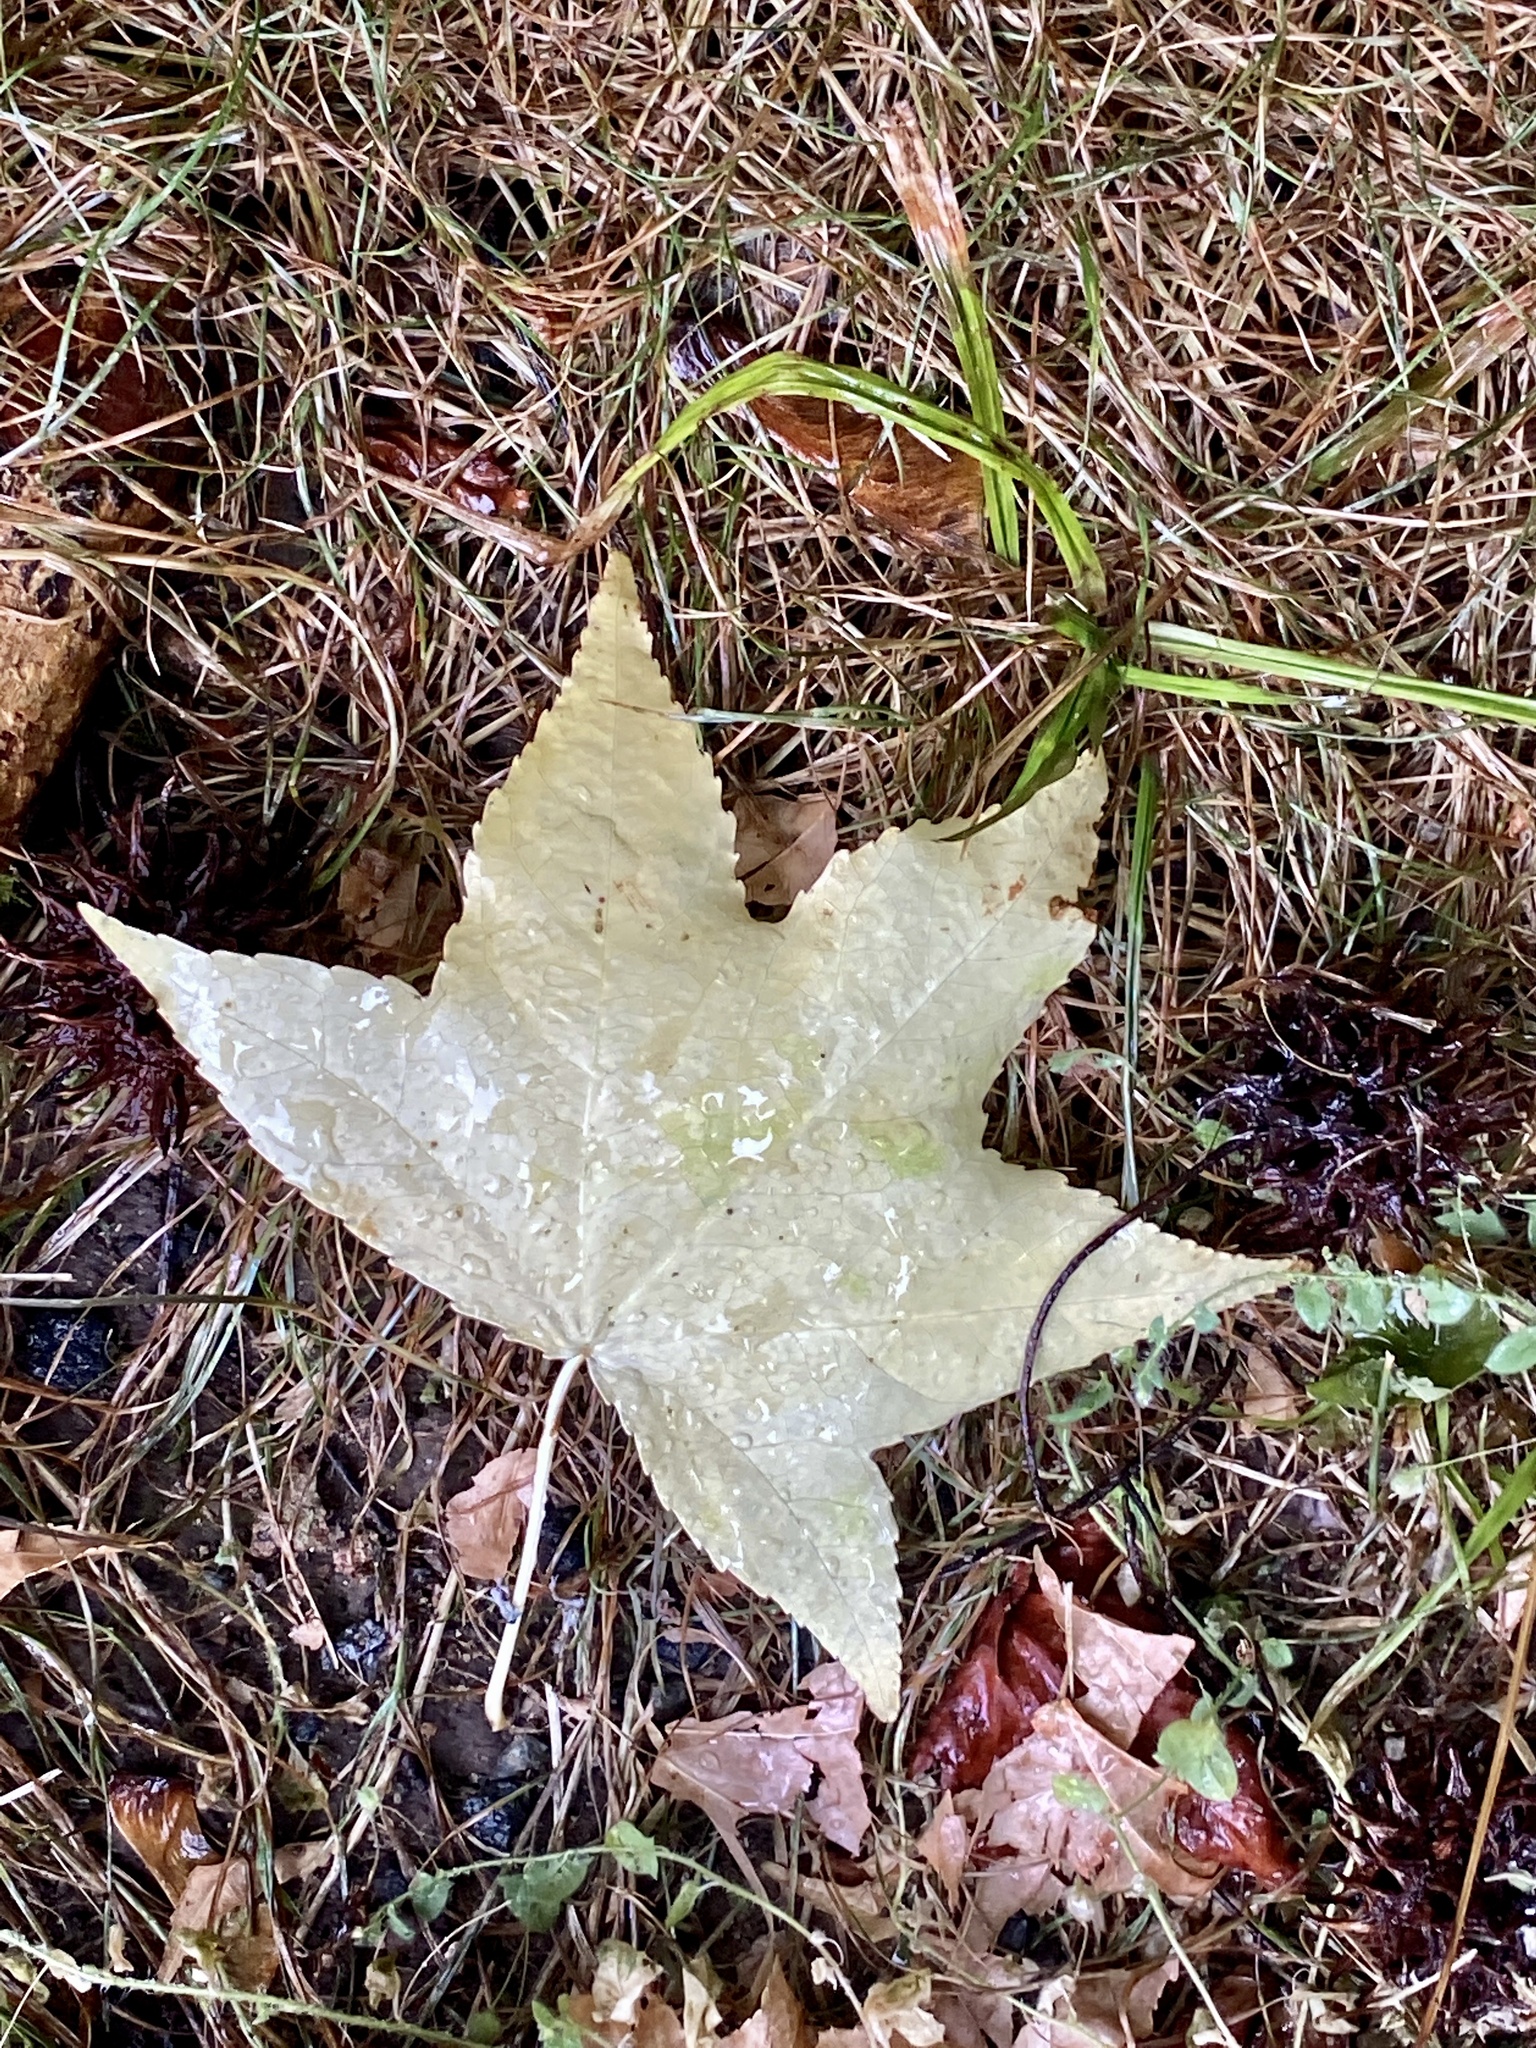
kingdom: Plantae
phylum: Tracheophyta
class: Magnoliopsida
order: Saxifragales
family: Altingiaceae
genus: Liquidambar
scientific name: Liquidambar styraciflua
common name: Sweet gum
